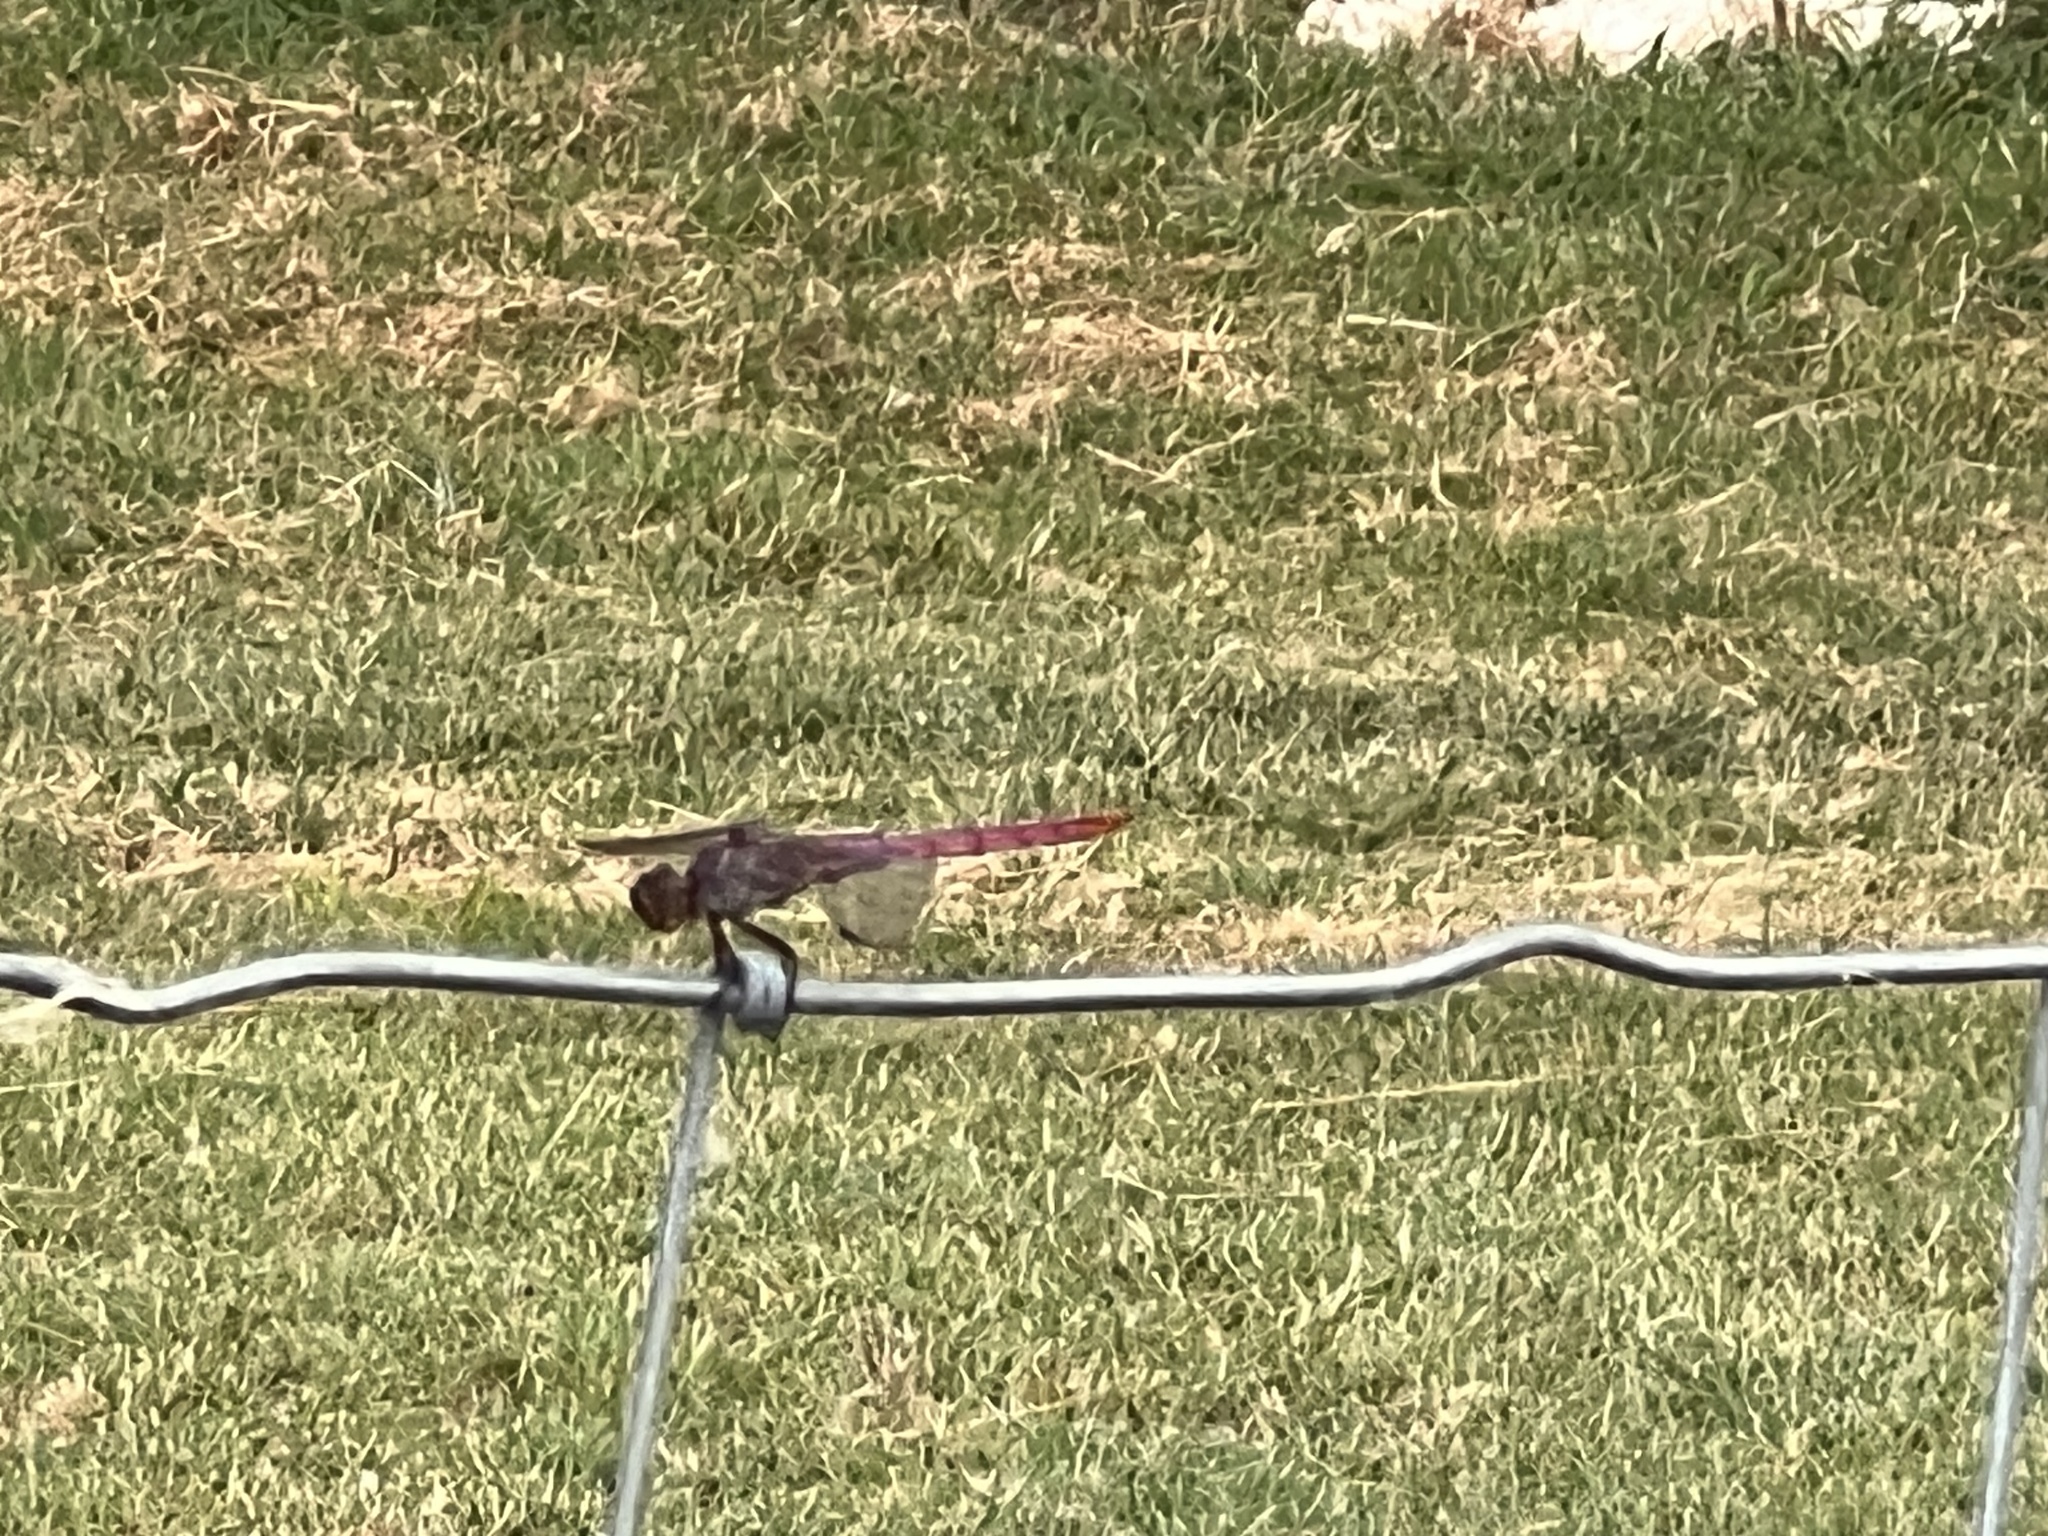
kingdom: Animalia
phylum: Arthropoda
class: Insecta
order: Odonata
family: Libellulidae
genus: Orthemis
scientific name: Orthemis ferruginea
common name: Roseate skimmer
